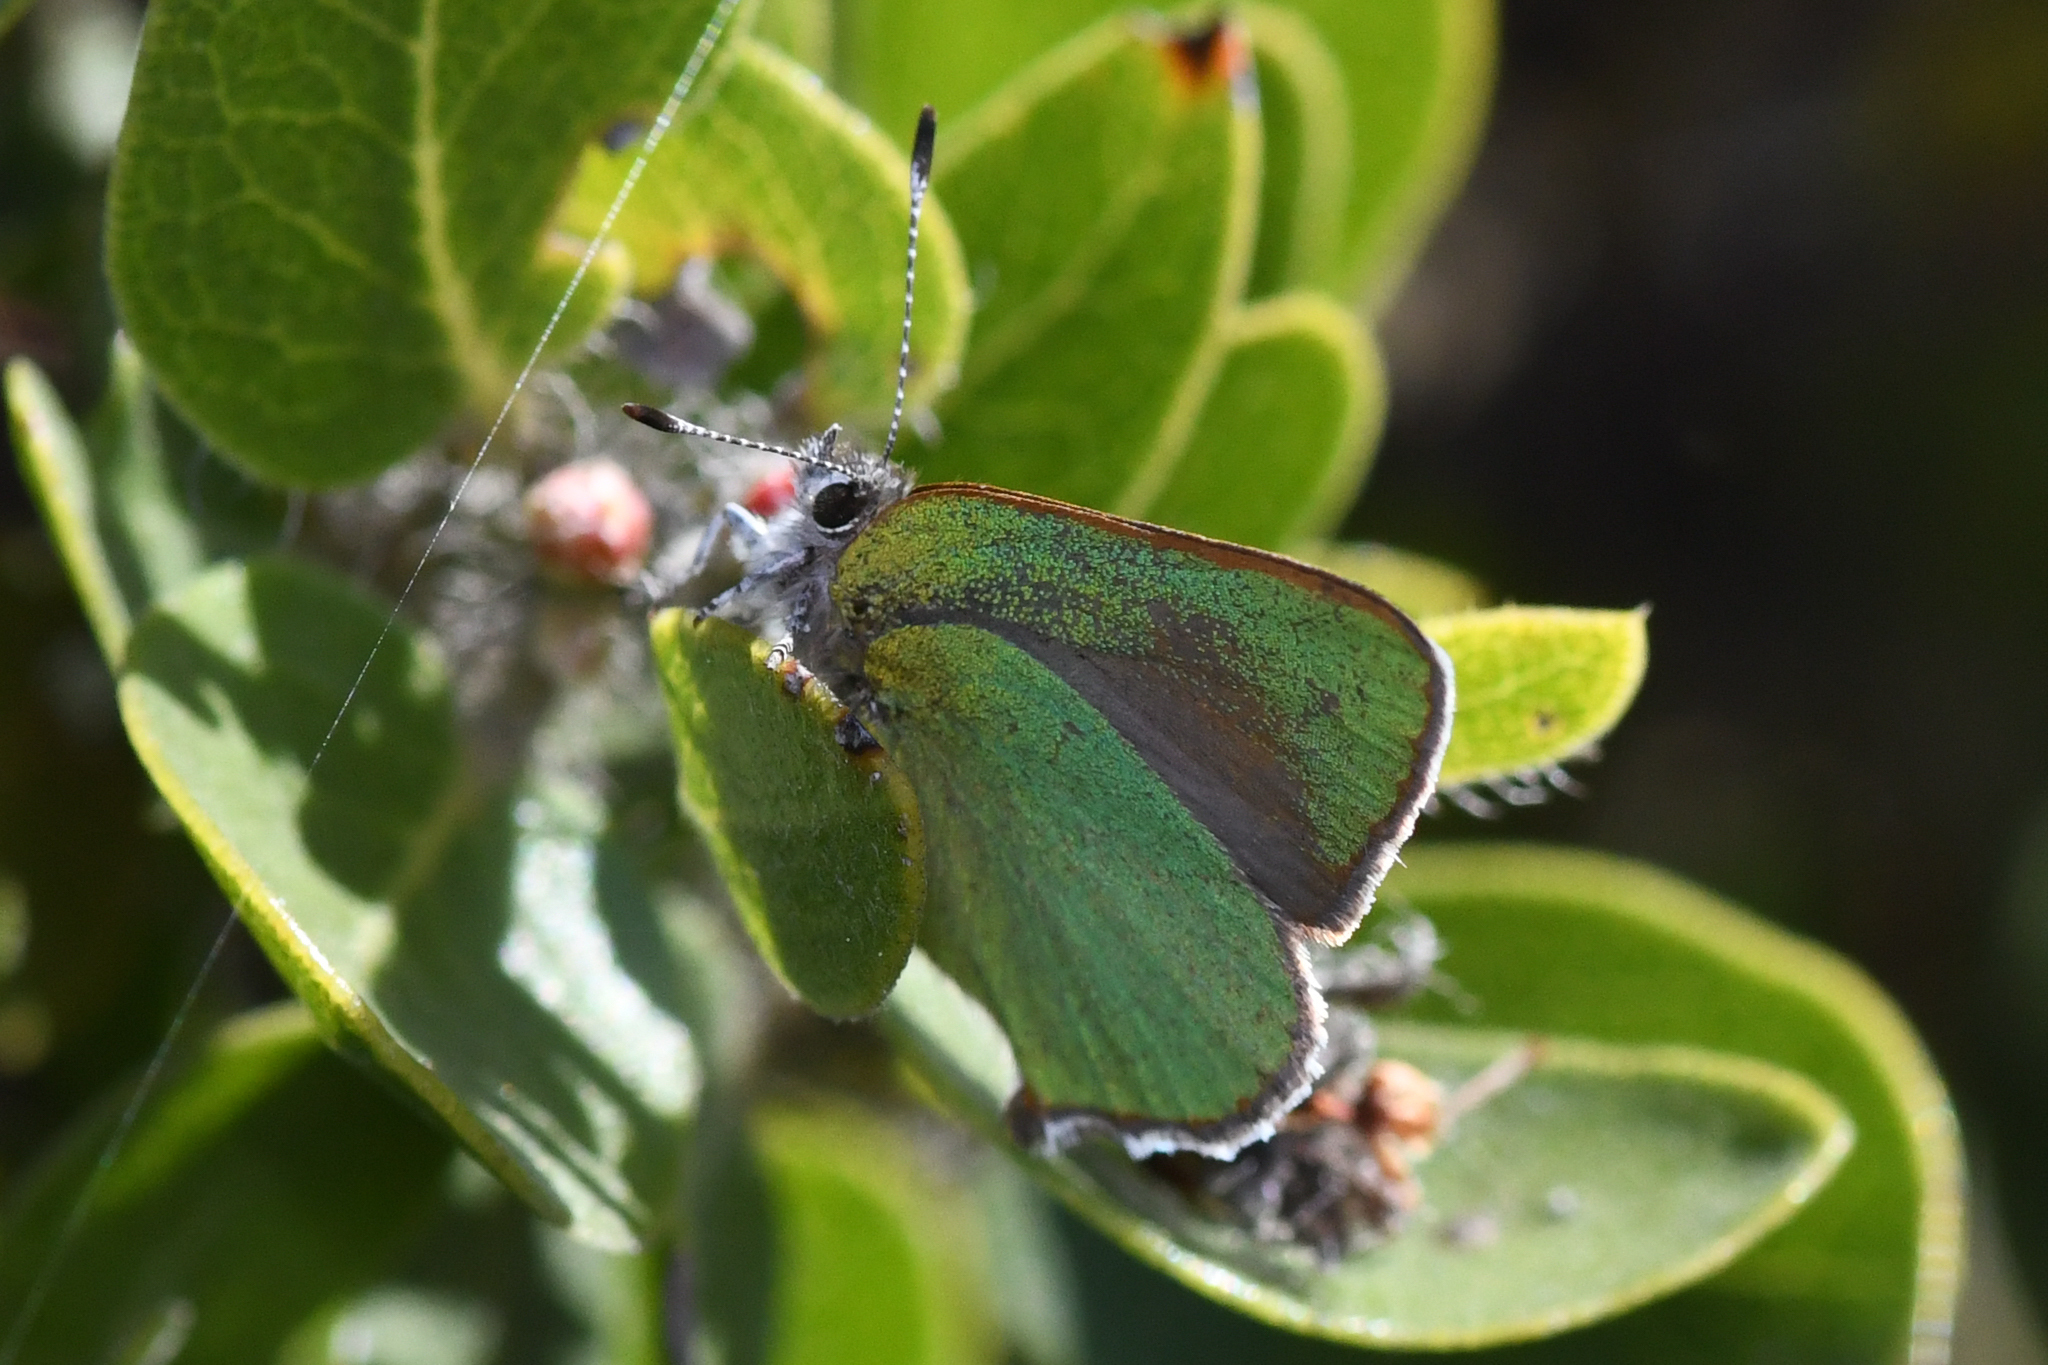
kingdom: Animalia
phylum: Arthropoda
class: Insecta
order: Lepidoptera
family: Lycaenidae
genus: Callophrys
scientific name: Callophrys dumetorum
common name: Bramble hairstreak
